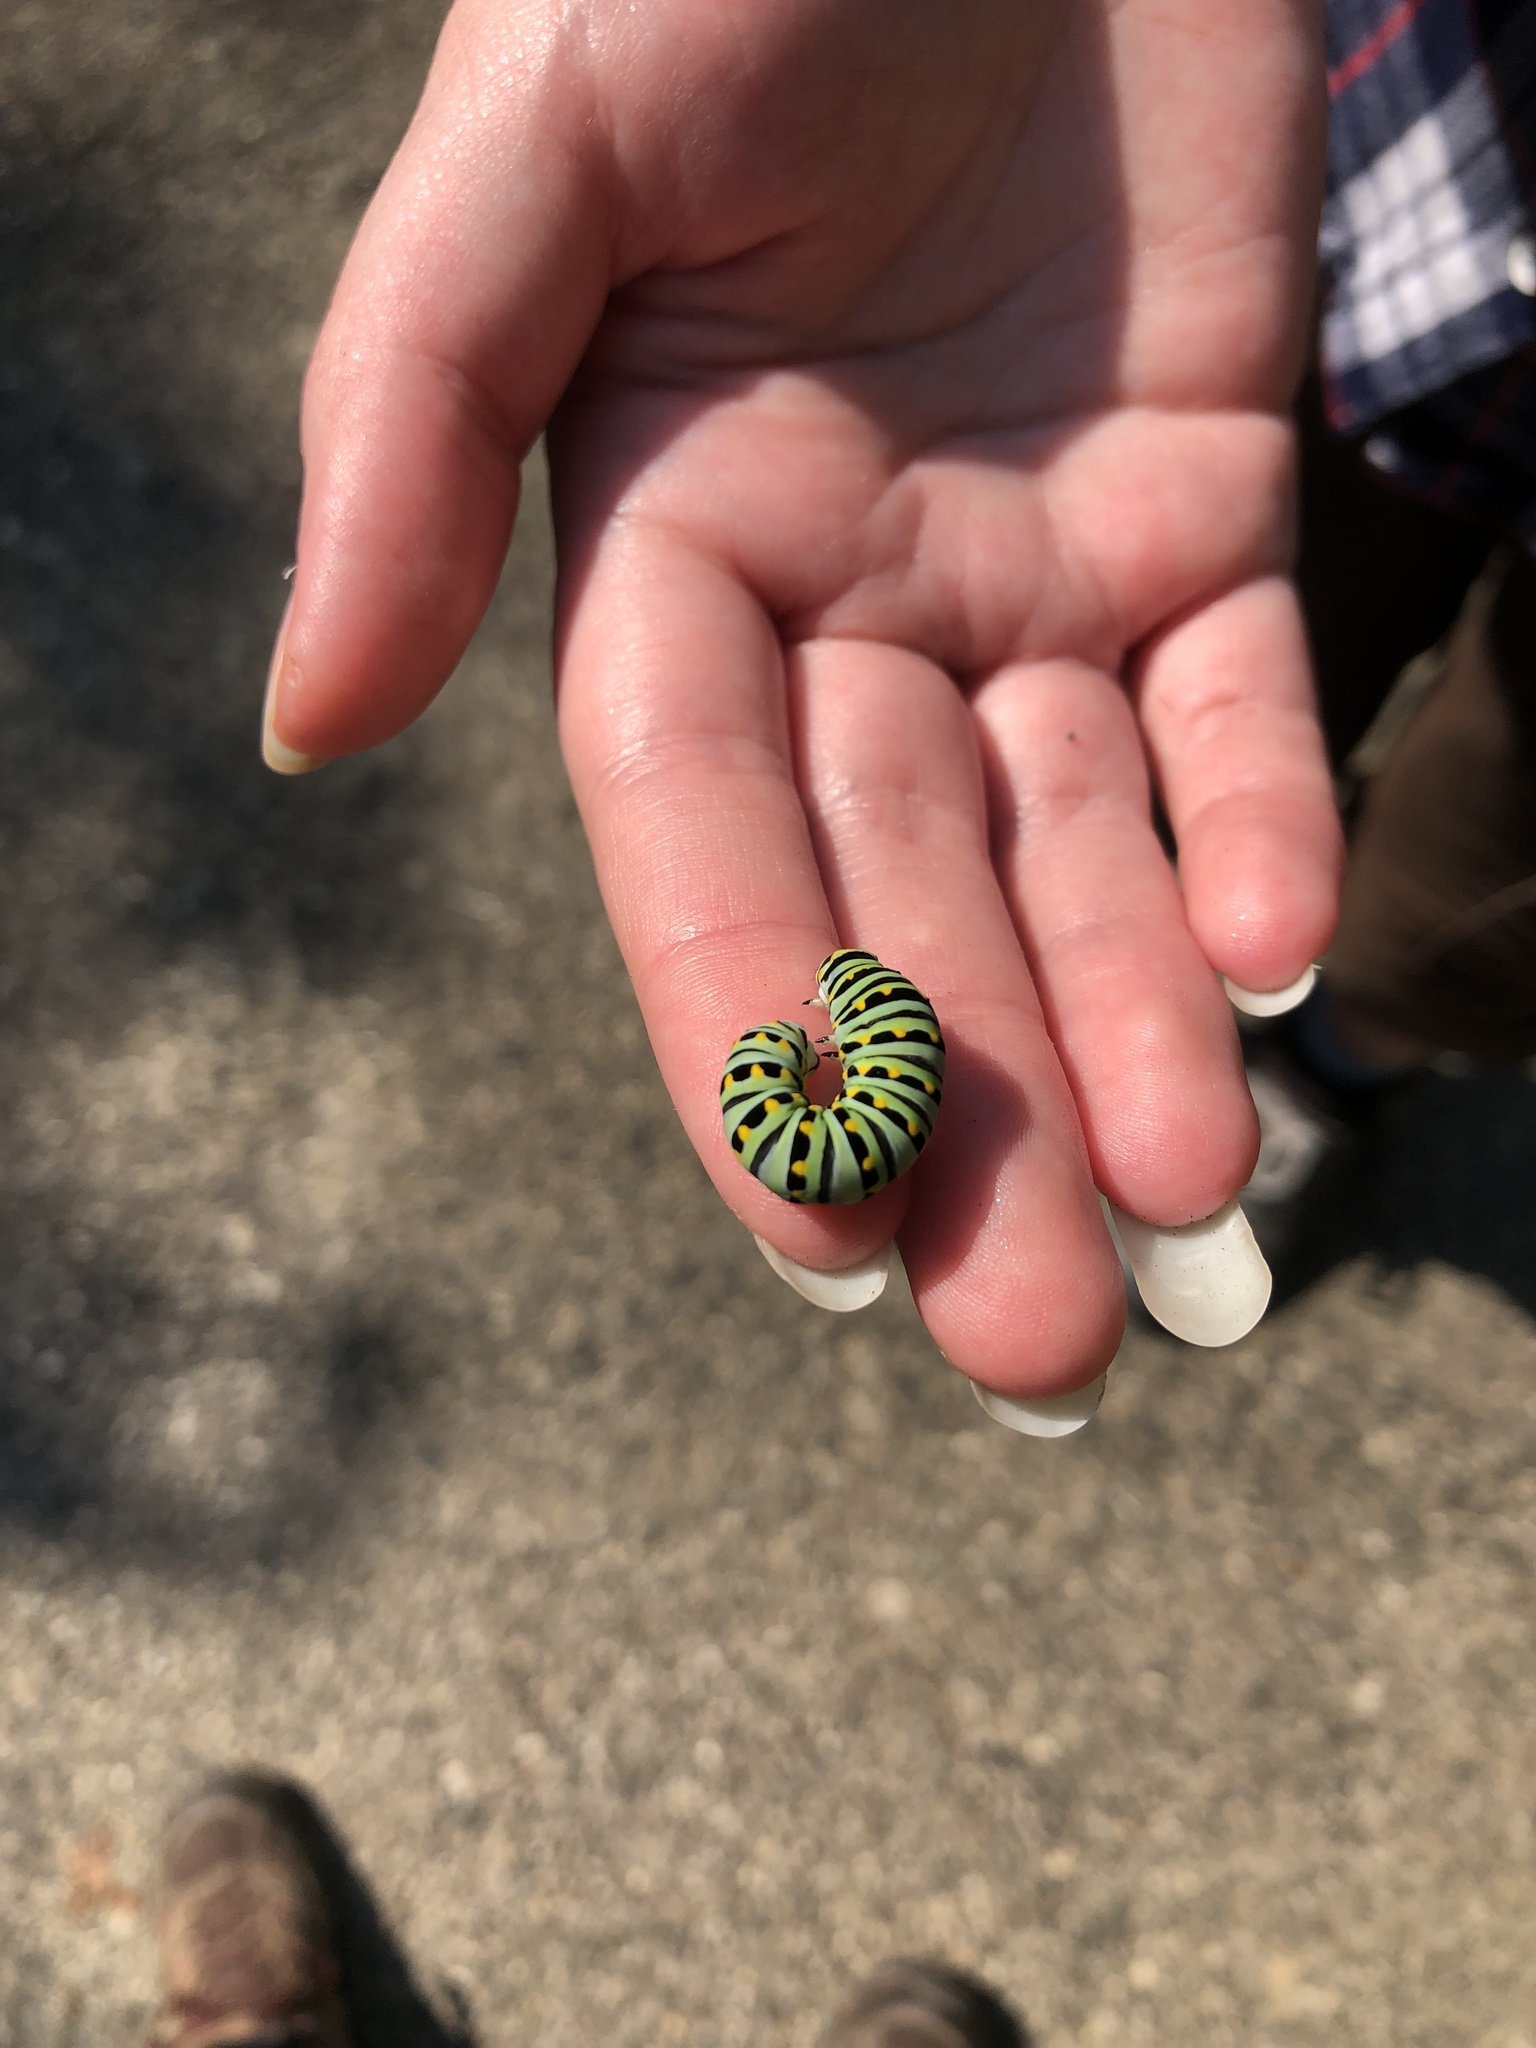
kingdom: Animalia
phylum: Arthropoda
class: Insecta
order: Lepidoptera
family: Papilionidae
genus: Papilio
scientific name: Papilio polyxenes
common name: Black swallowtail
